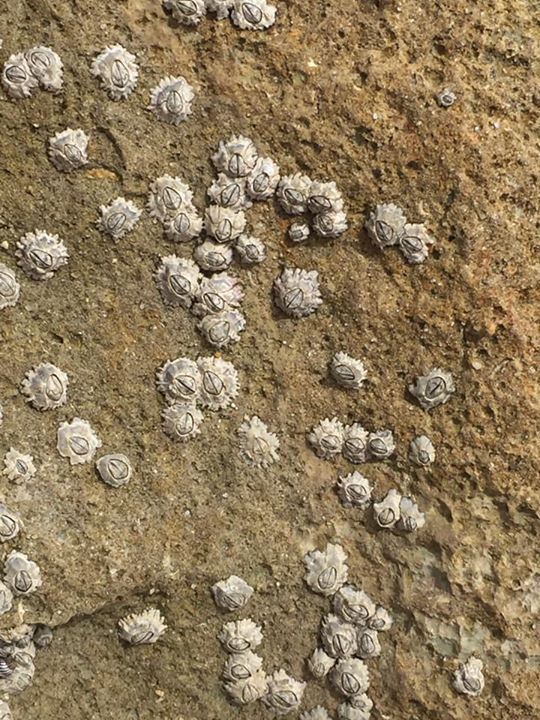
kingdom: Animalia
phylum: Arthropoda
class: Maxillopoda
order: Sessilia
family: Chthamalidae
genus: Chthamalus
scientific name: Chthamalus proteus
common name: Caribbean barnacle
